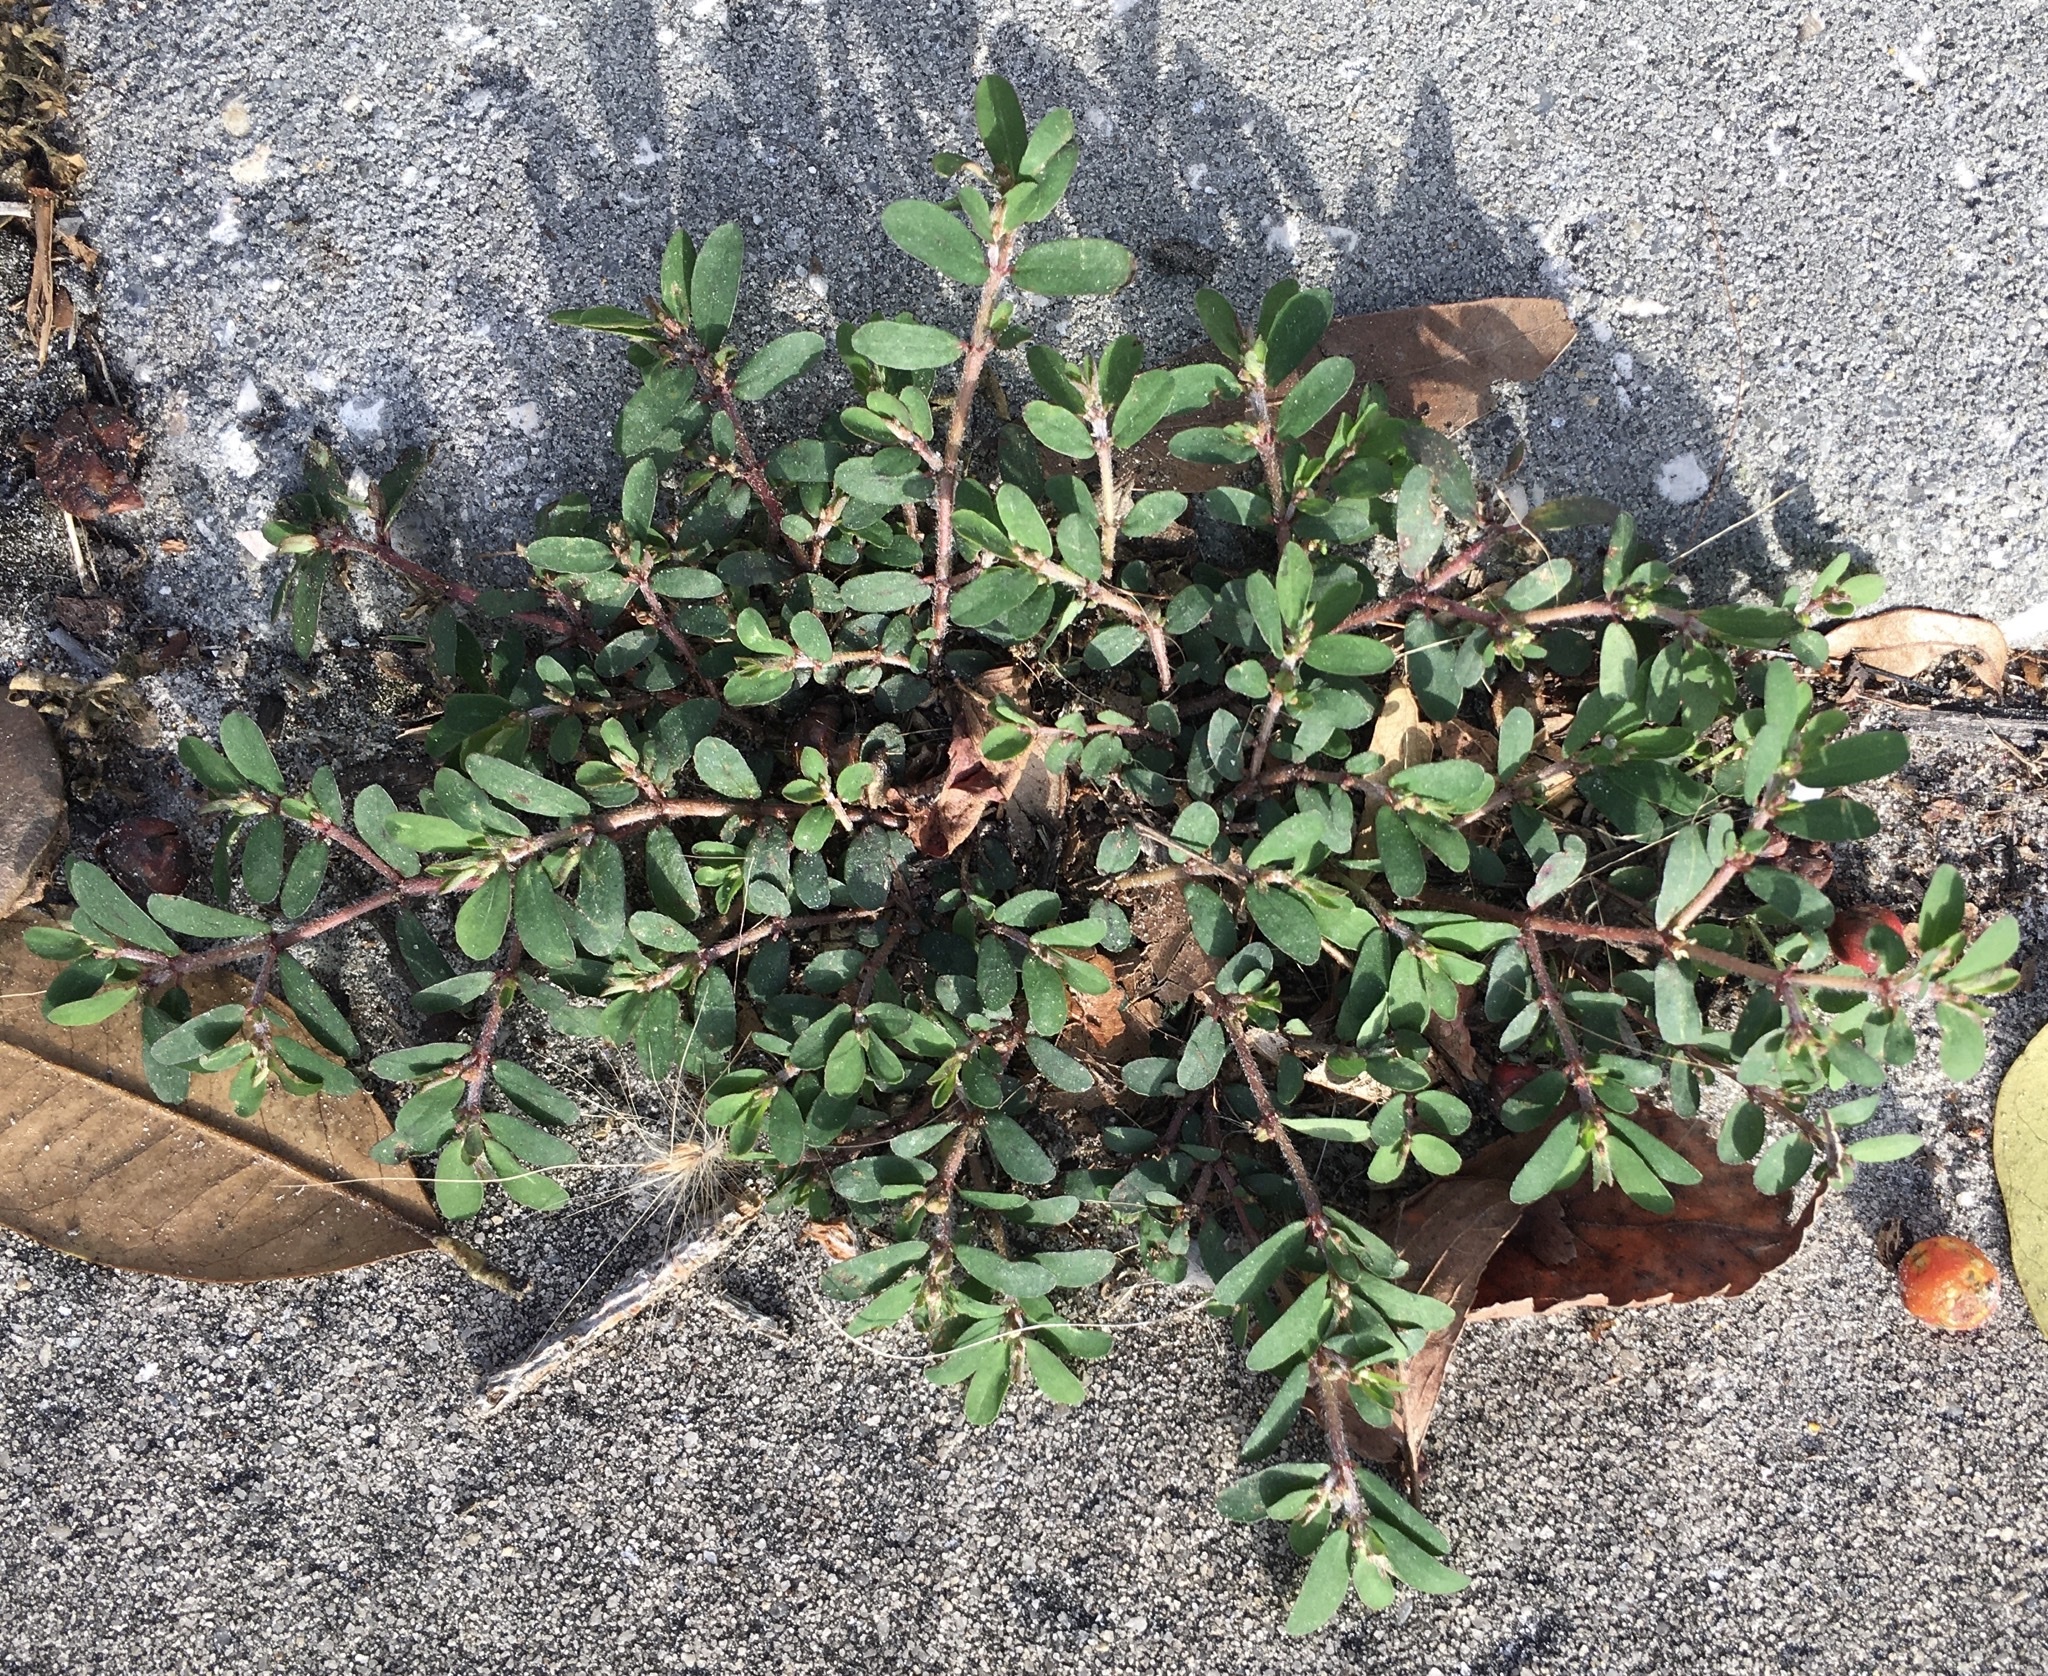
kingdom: Plantae
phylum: Tracheophyta
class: Magnoliopsida
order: Malpighiales
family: Euphorbiaceae
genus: Euphorbia
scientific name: Euphorbia maculata
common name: Spotted spurge
